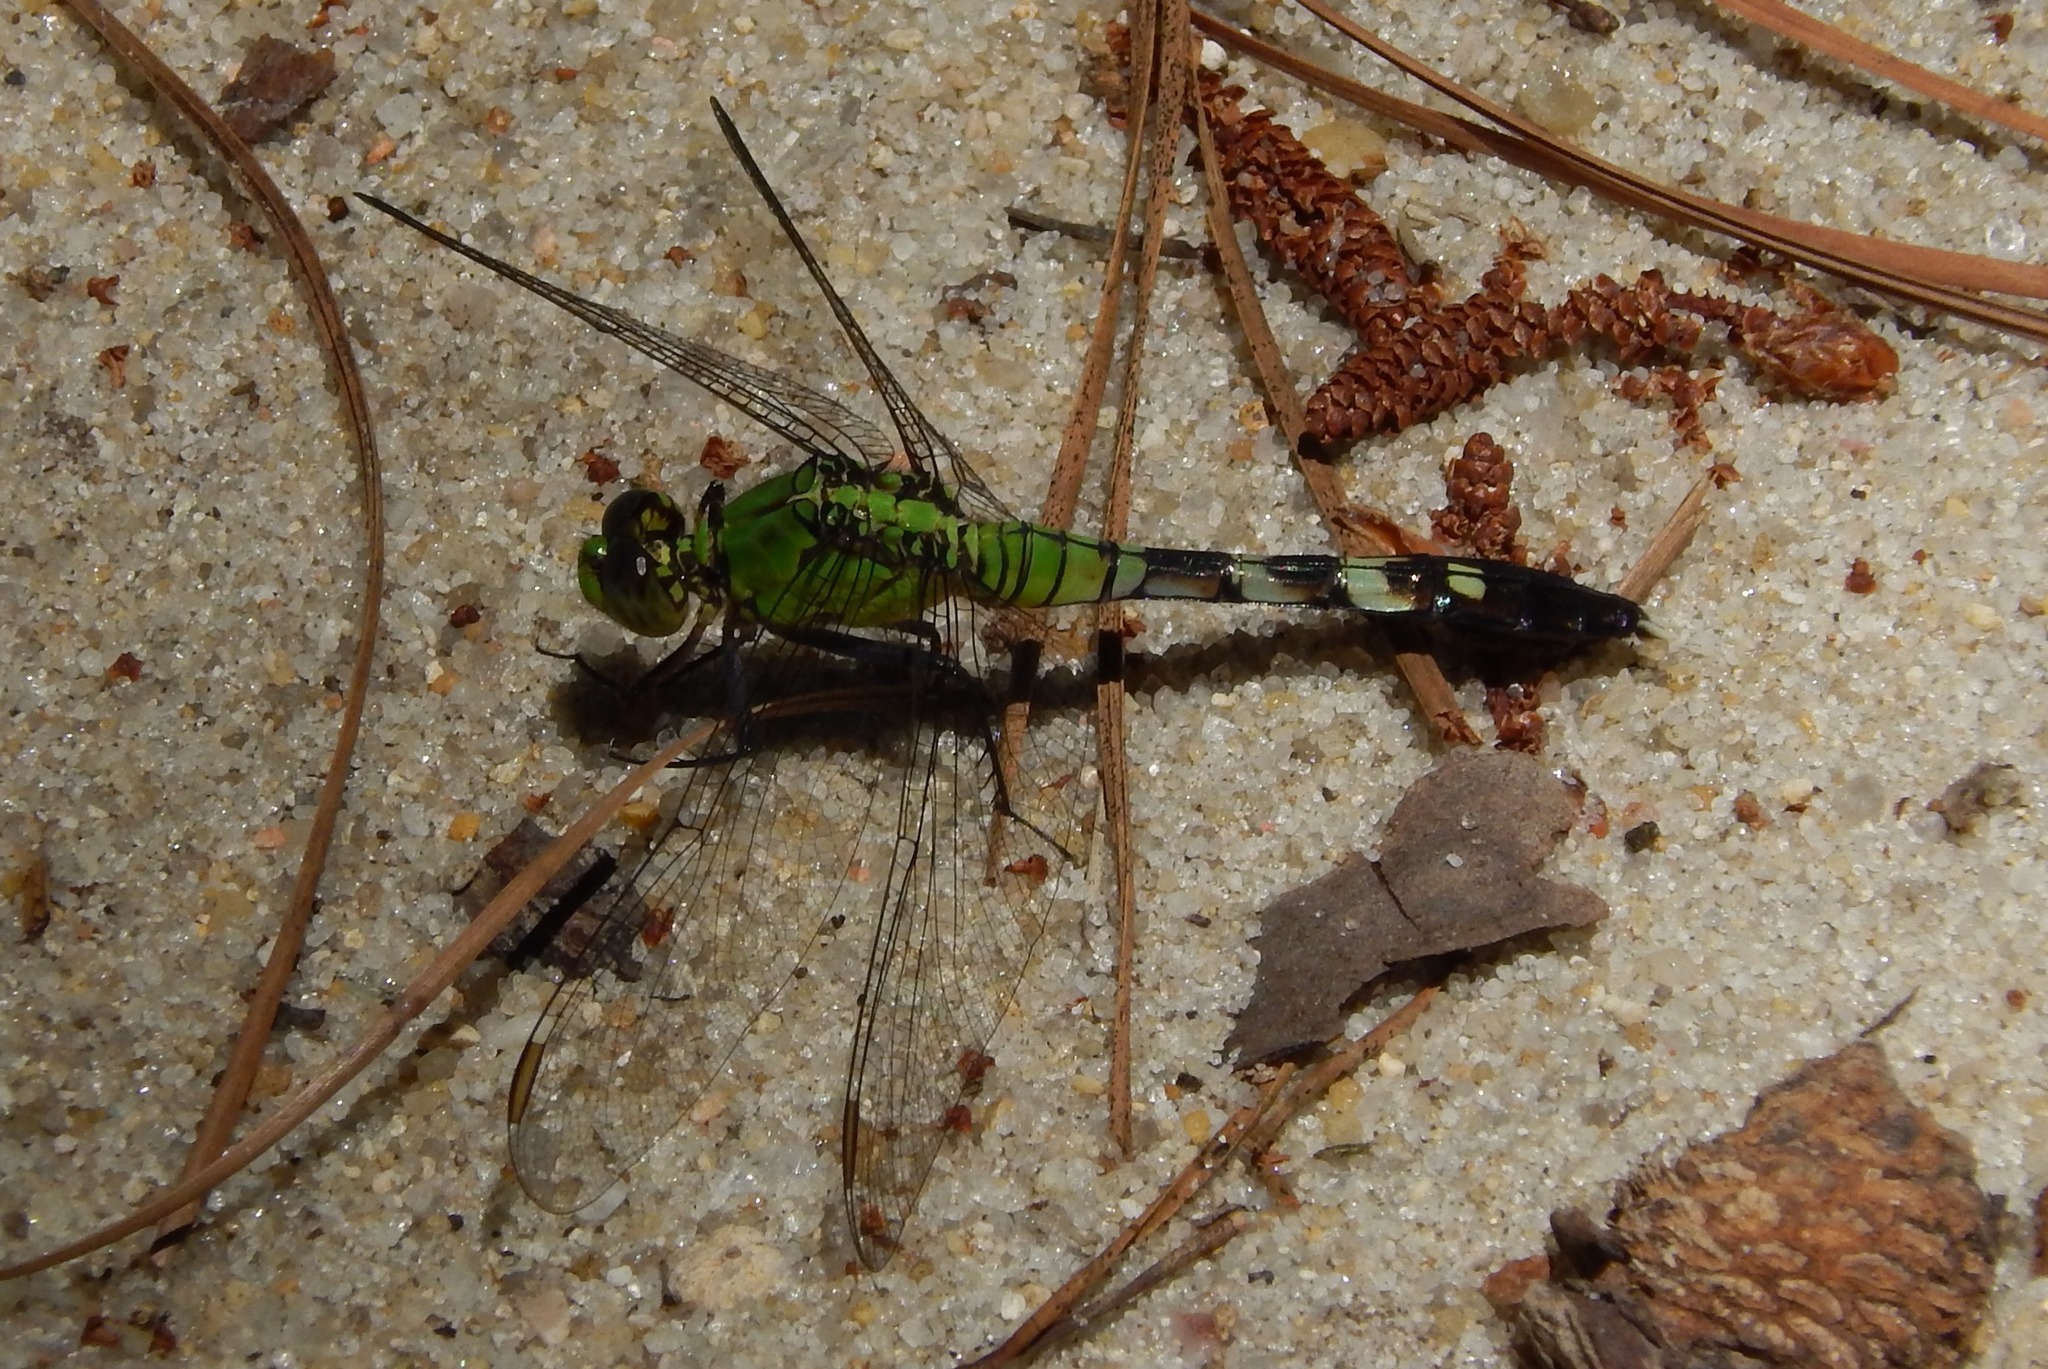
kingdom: Animalia
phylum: Arthropoda
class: Insecta
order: Odonata
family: Libellulidae
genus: Erythemis
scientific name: Erythemis simplicicollis
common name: Eastern pondhawk
